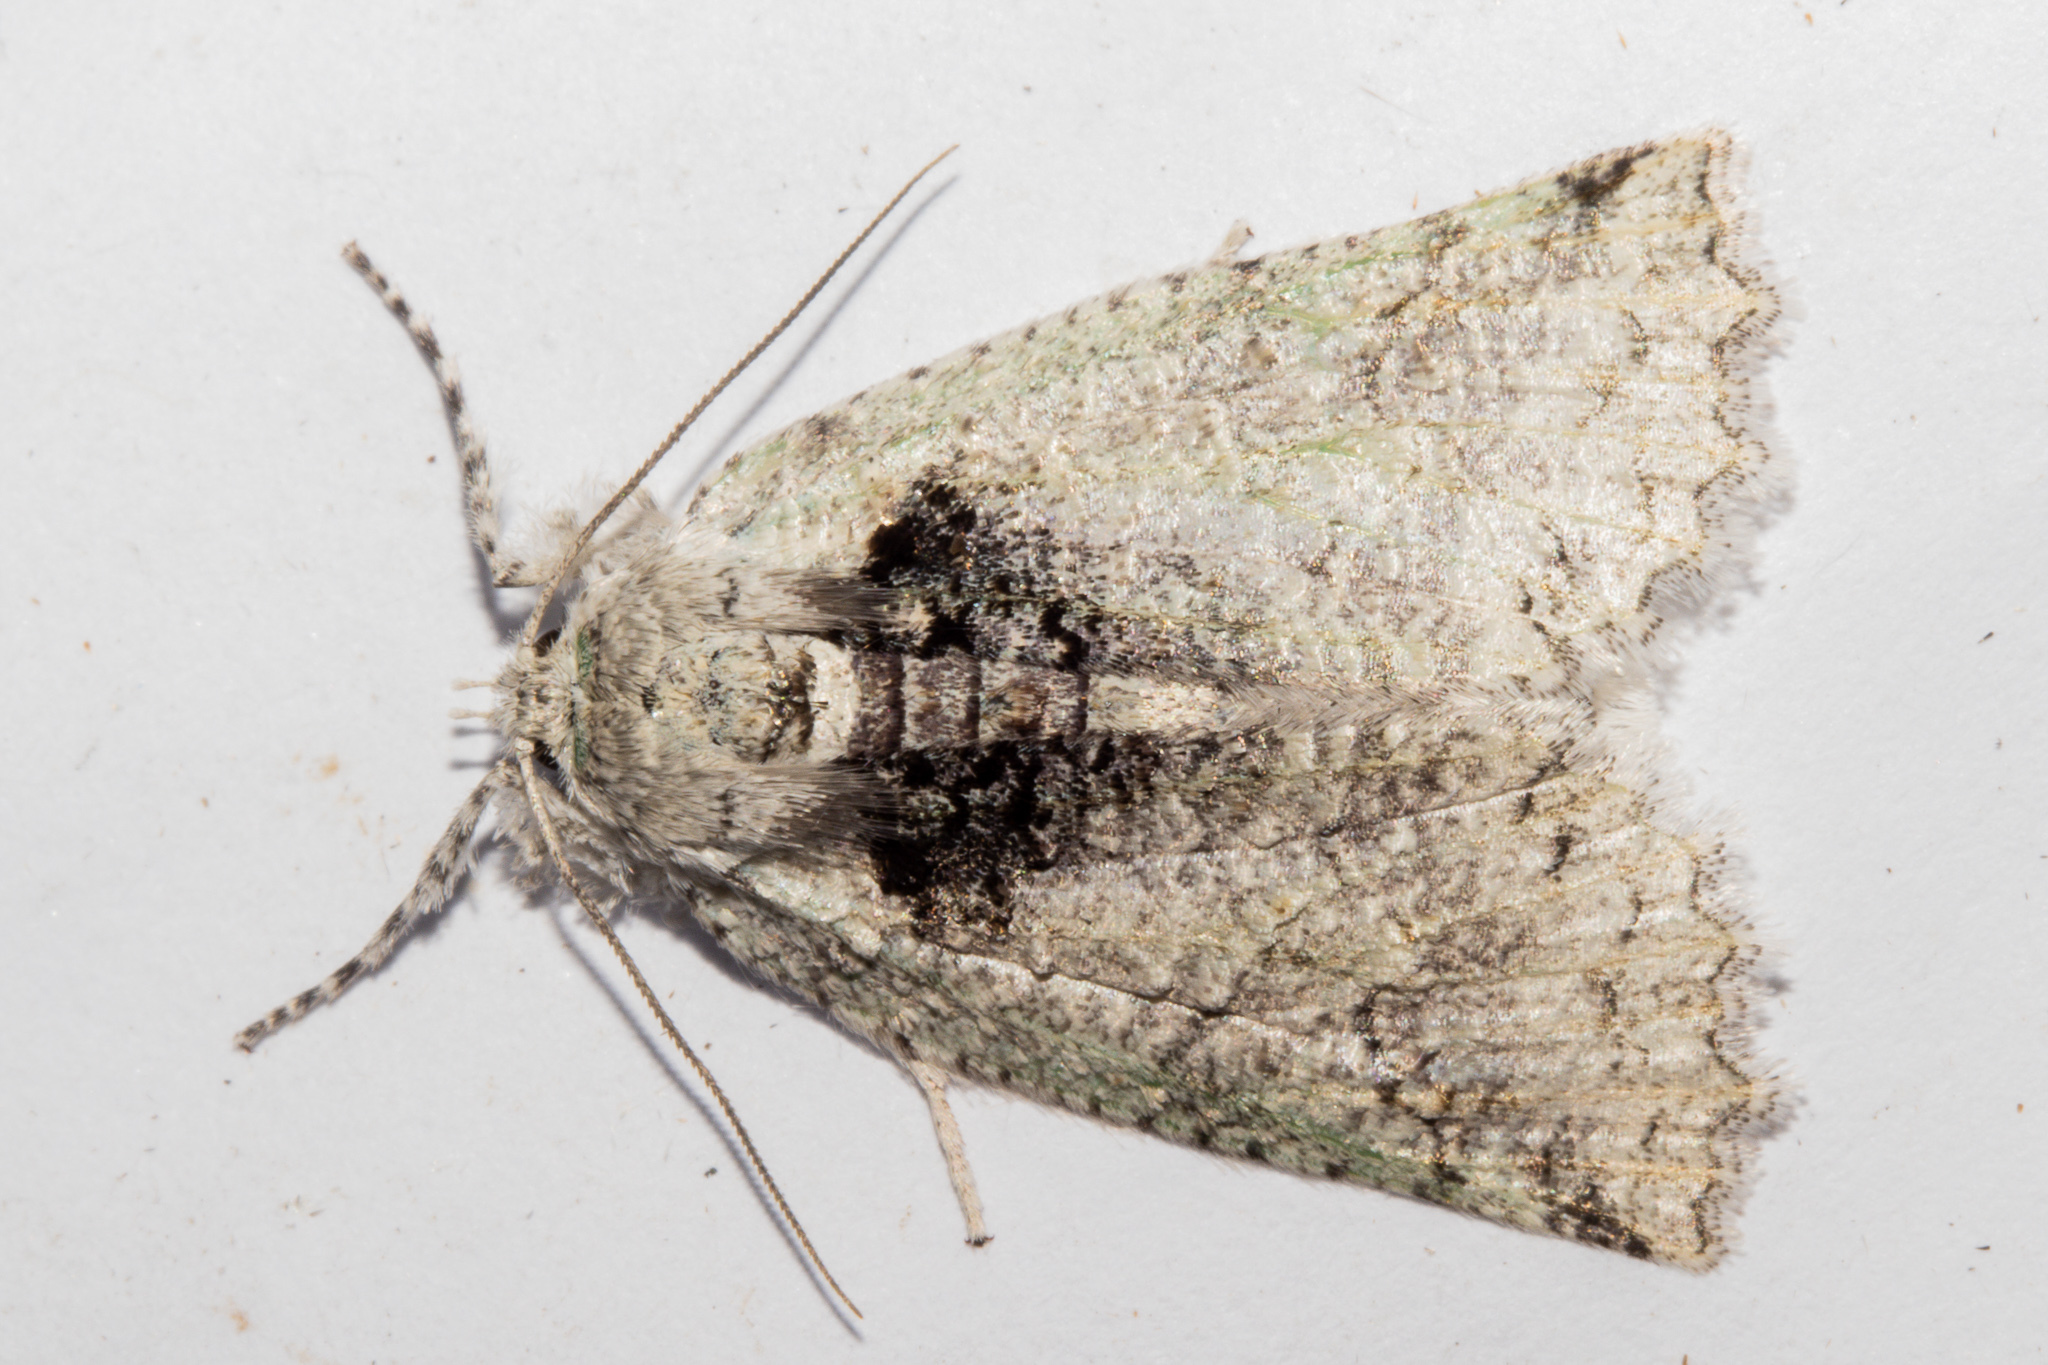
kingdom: Animalia
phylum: Arthropoda
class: Insecta
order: Lepidoptera
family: Geometridae
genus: Declana
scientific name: Declana floccosa
